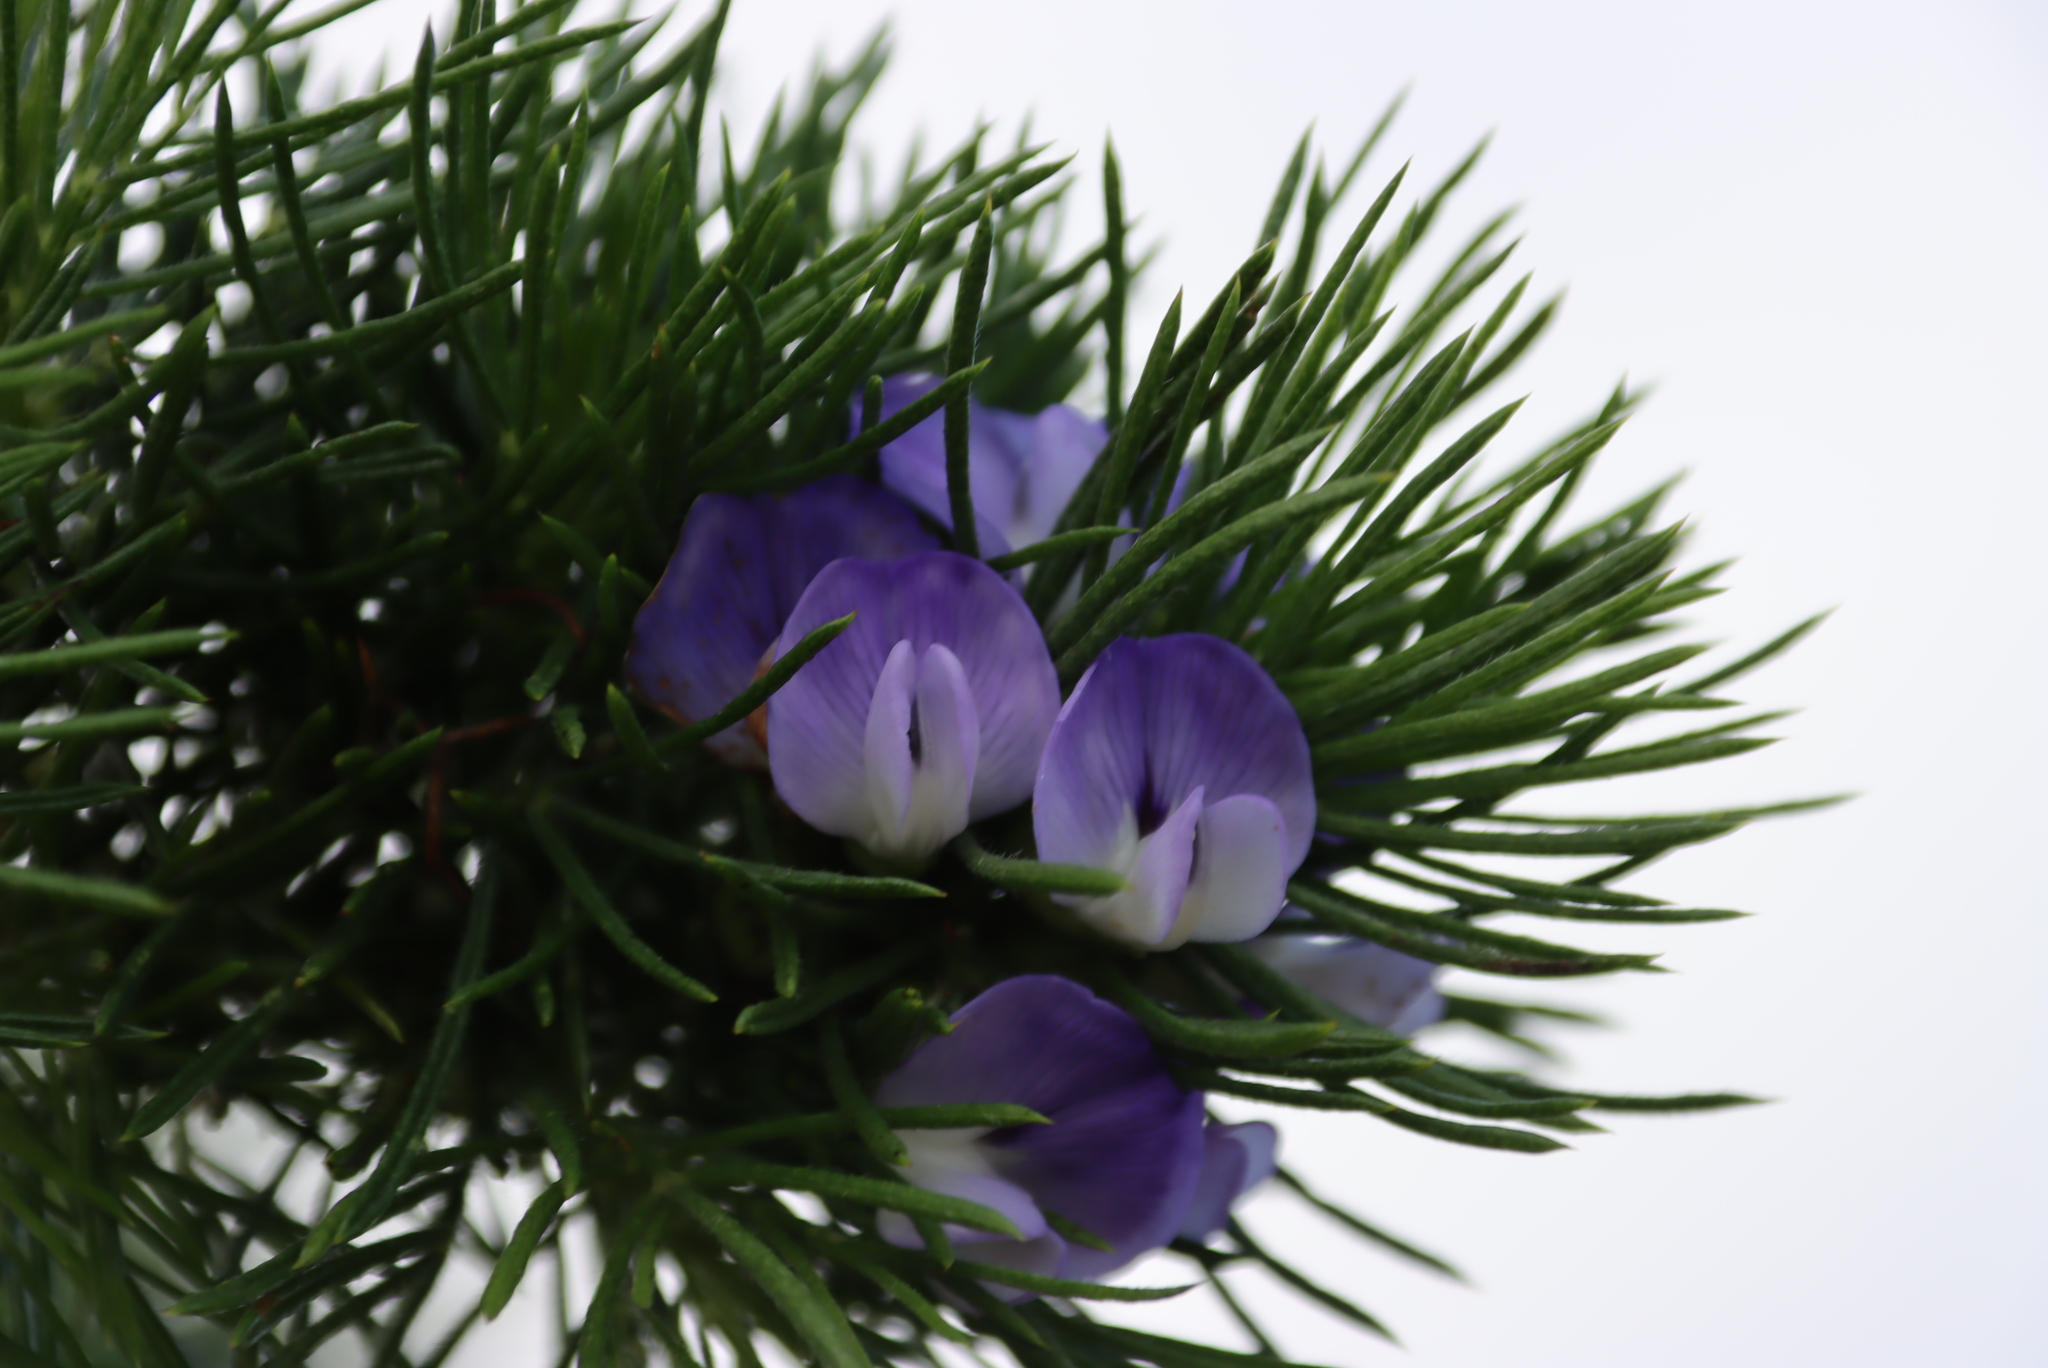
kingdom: Plantae
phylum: Tracheophyta
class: Magnoliopsida
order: Fabales
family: Fabaceae
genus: Psoralea
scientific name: Psoralea pinnata
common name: African scurfpea
